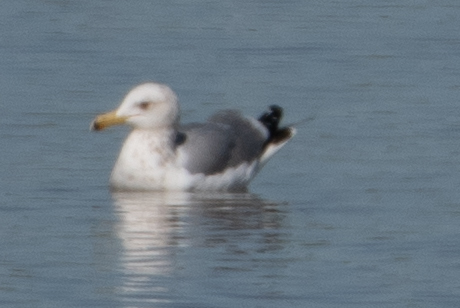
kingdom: Animalia
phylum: Chordata
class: Aves
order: Charadriiformes
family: Laridae
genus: Larus
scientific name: Larus californicus
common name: California gull
